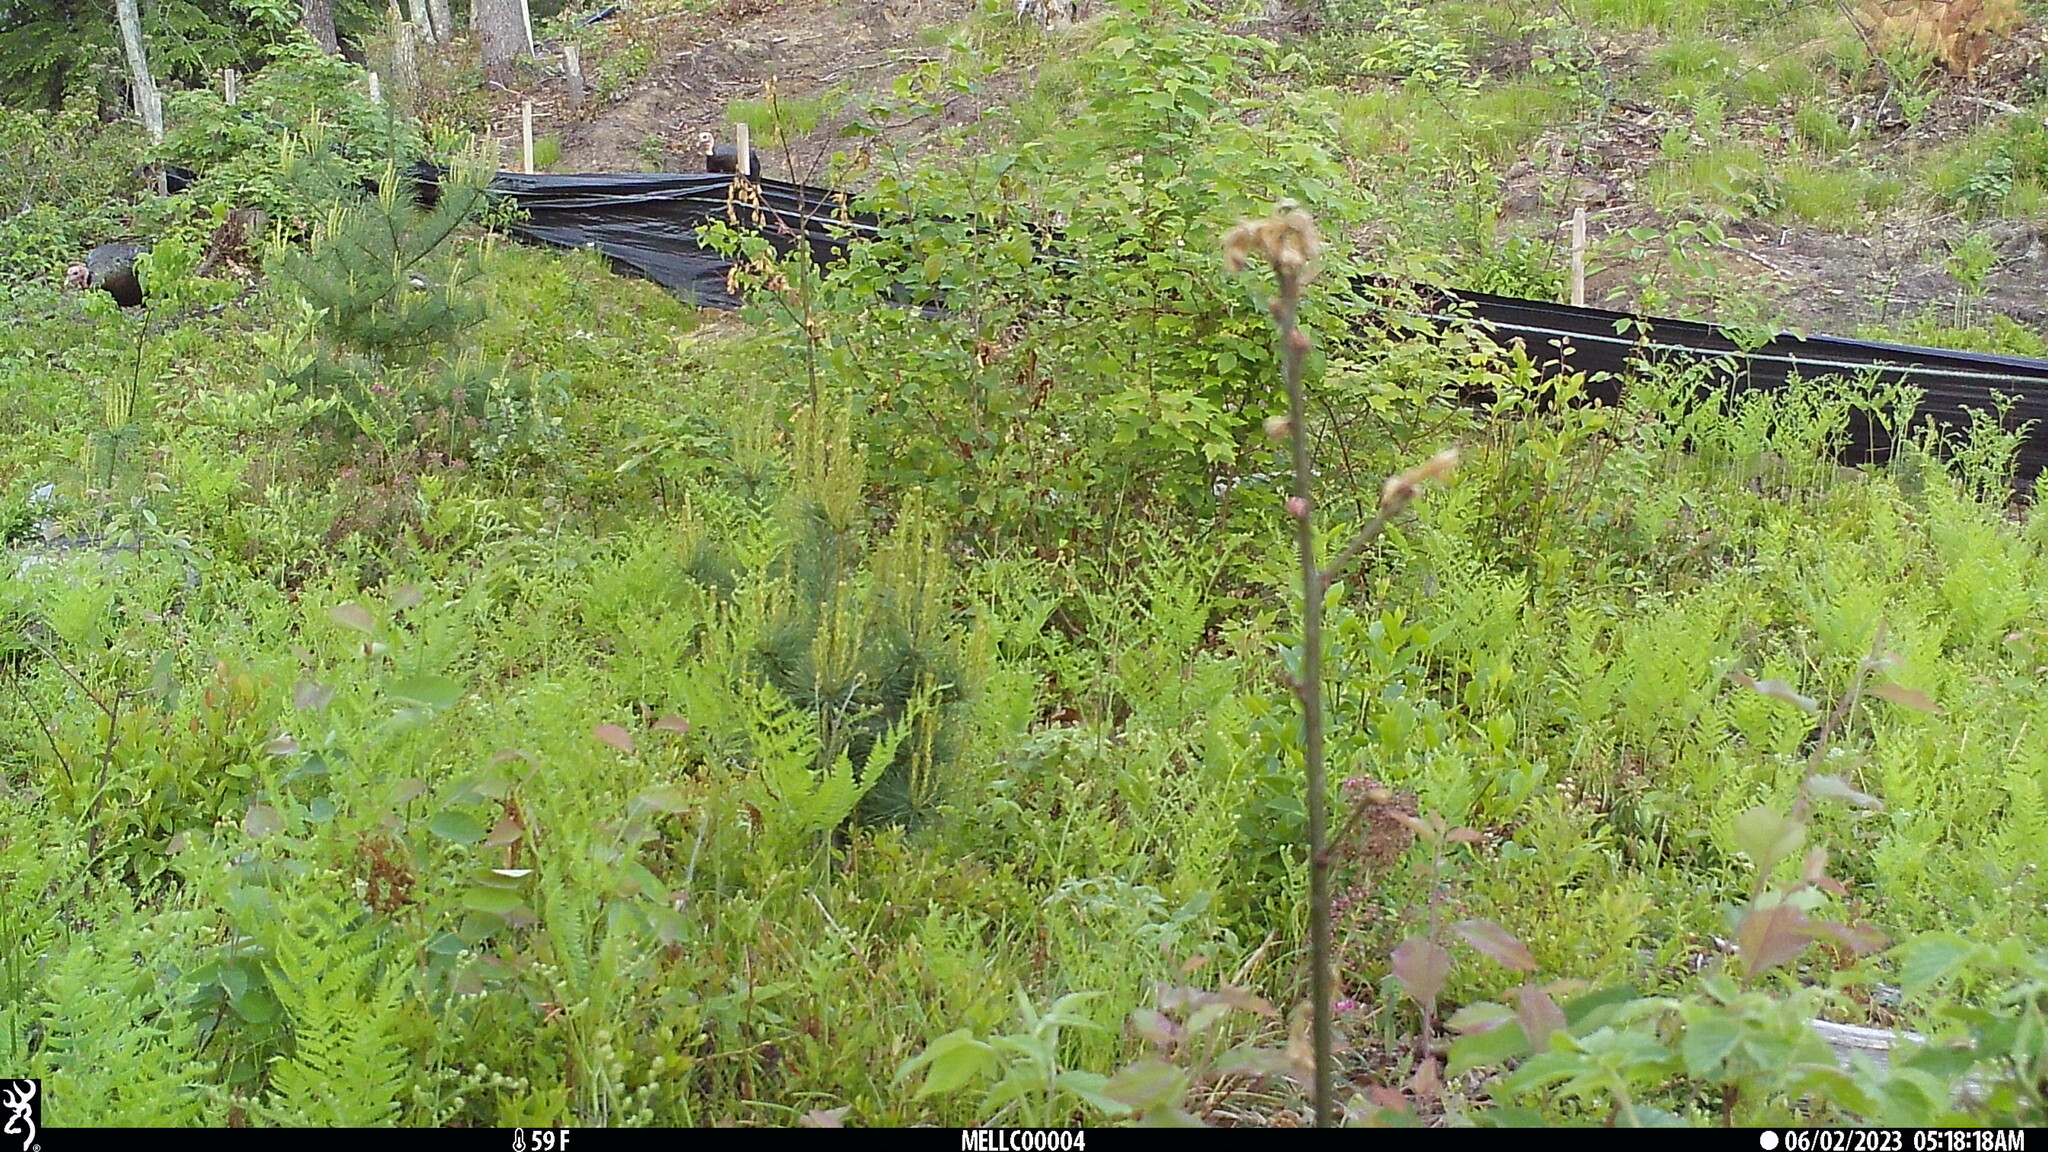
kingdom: Animalia
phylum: Chordata
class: Aves
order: Galliformes
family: Phasianidae
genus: Meleagris
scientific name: Meleagris gallopavo
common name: Wild turkey
